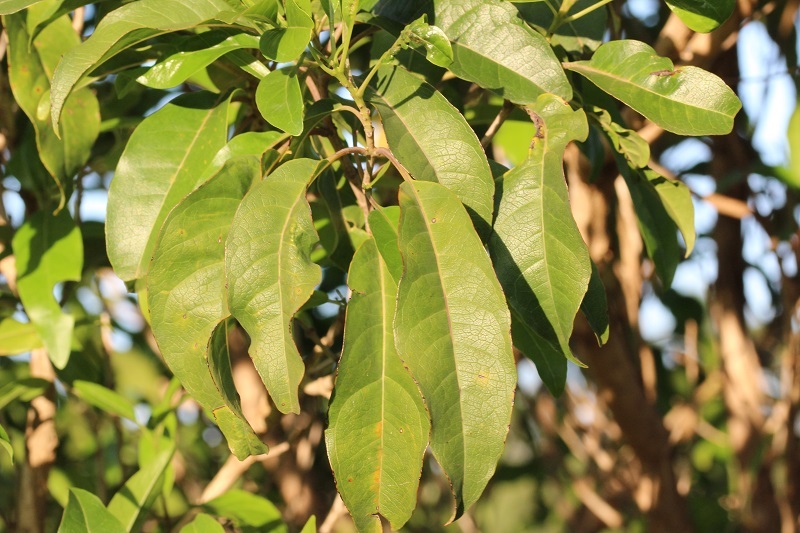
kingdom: Plantae
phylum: Tracheophyta
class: Magnoliopsida
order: Lamiales
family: Stilbaceae
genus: Nuxia
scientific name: Nuxia floribunda
